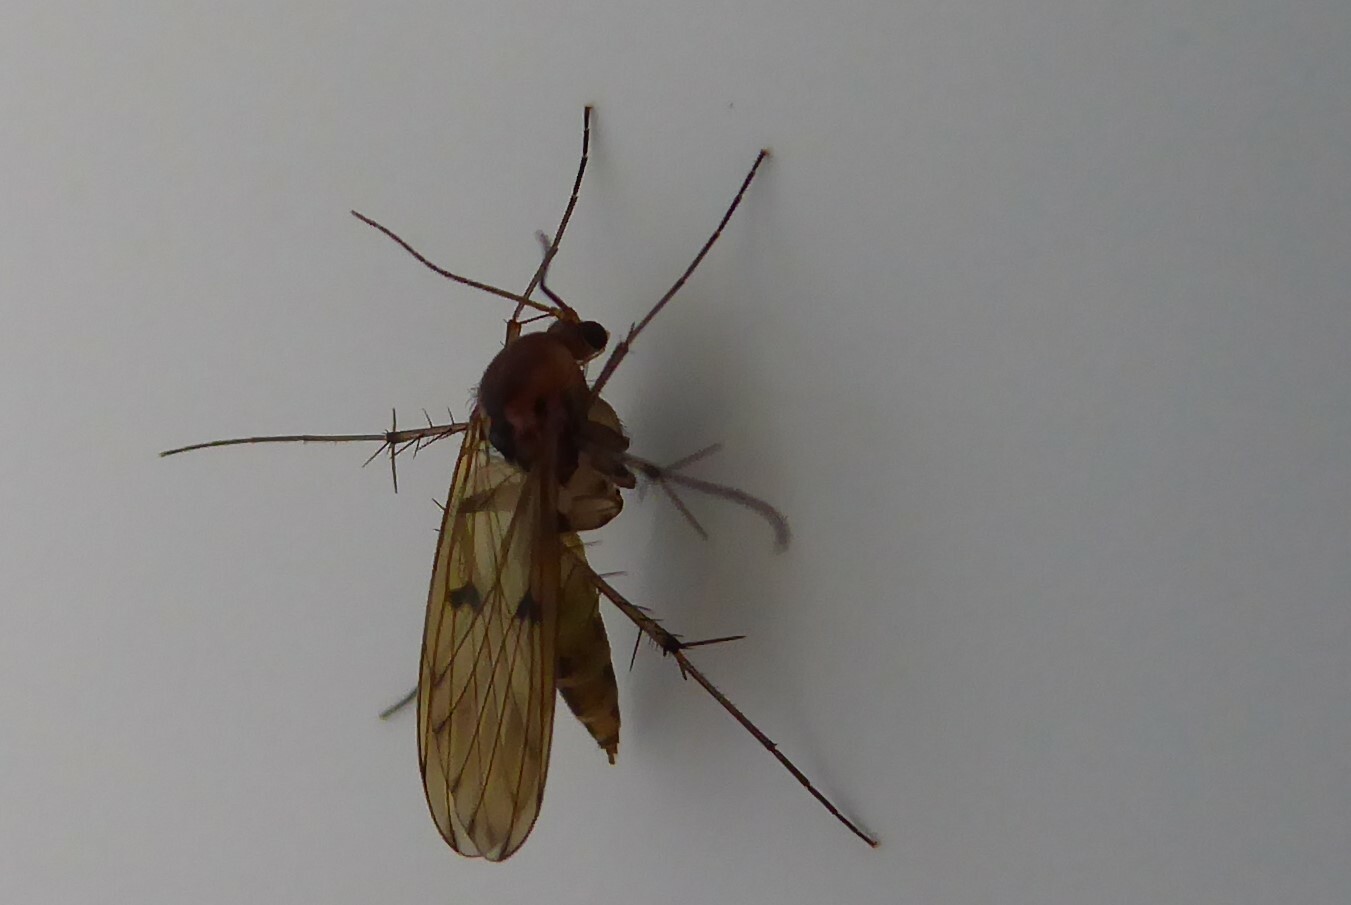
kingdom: Animalia
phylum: Arthropoda
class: Insecta
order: Diptera
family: Mycetophilidae
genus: Mycetophila
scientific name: Mycetophila marginepunctata
